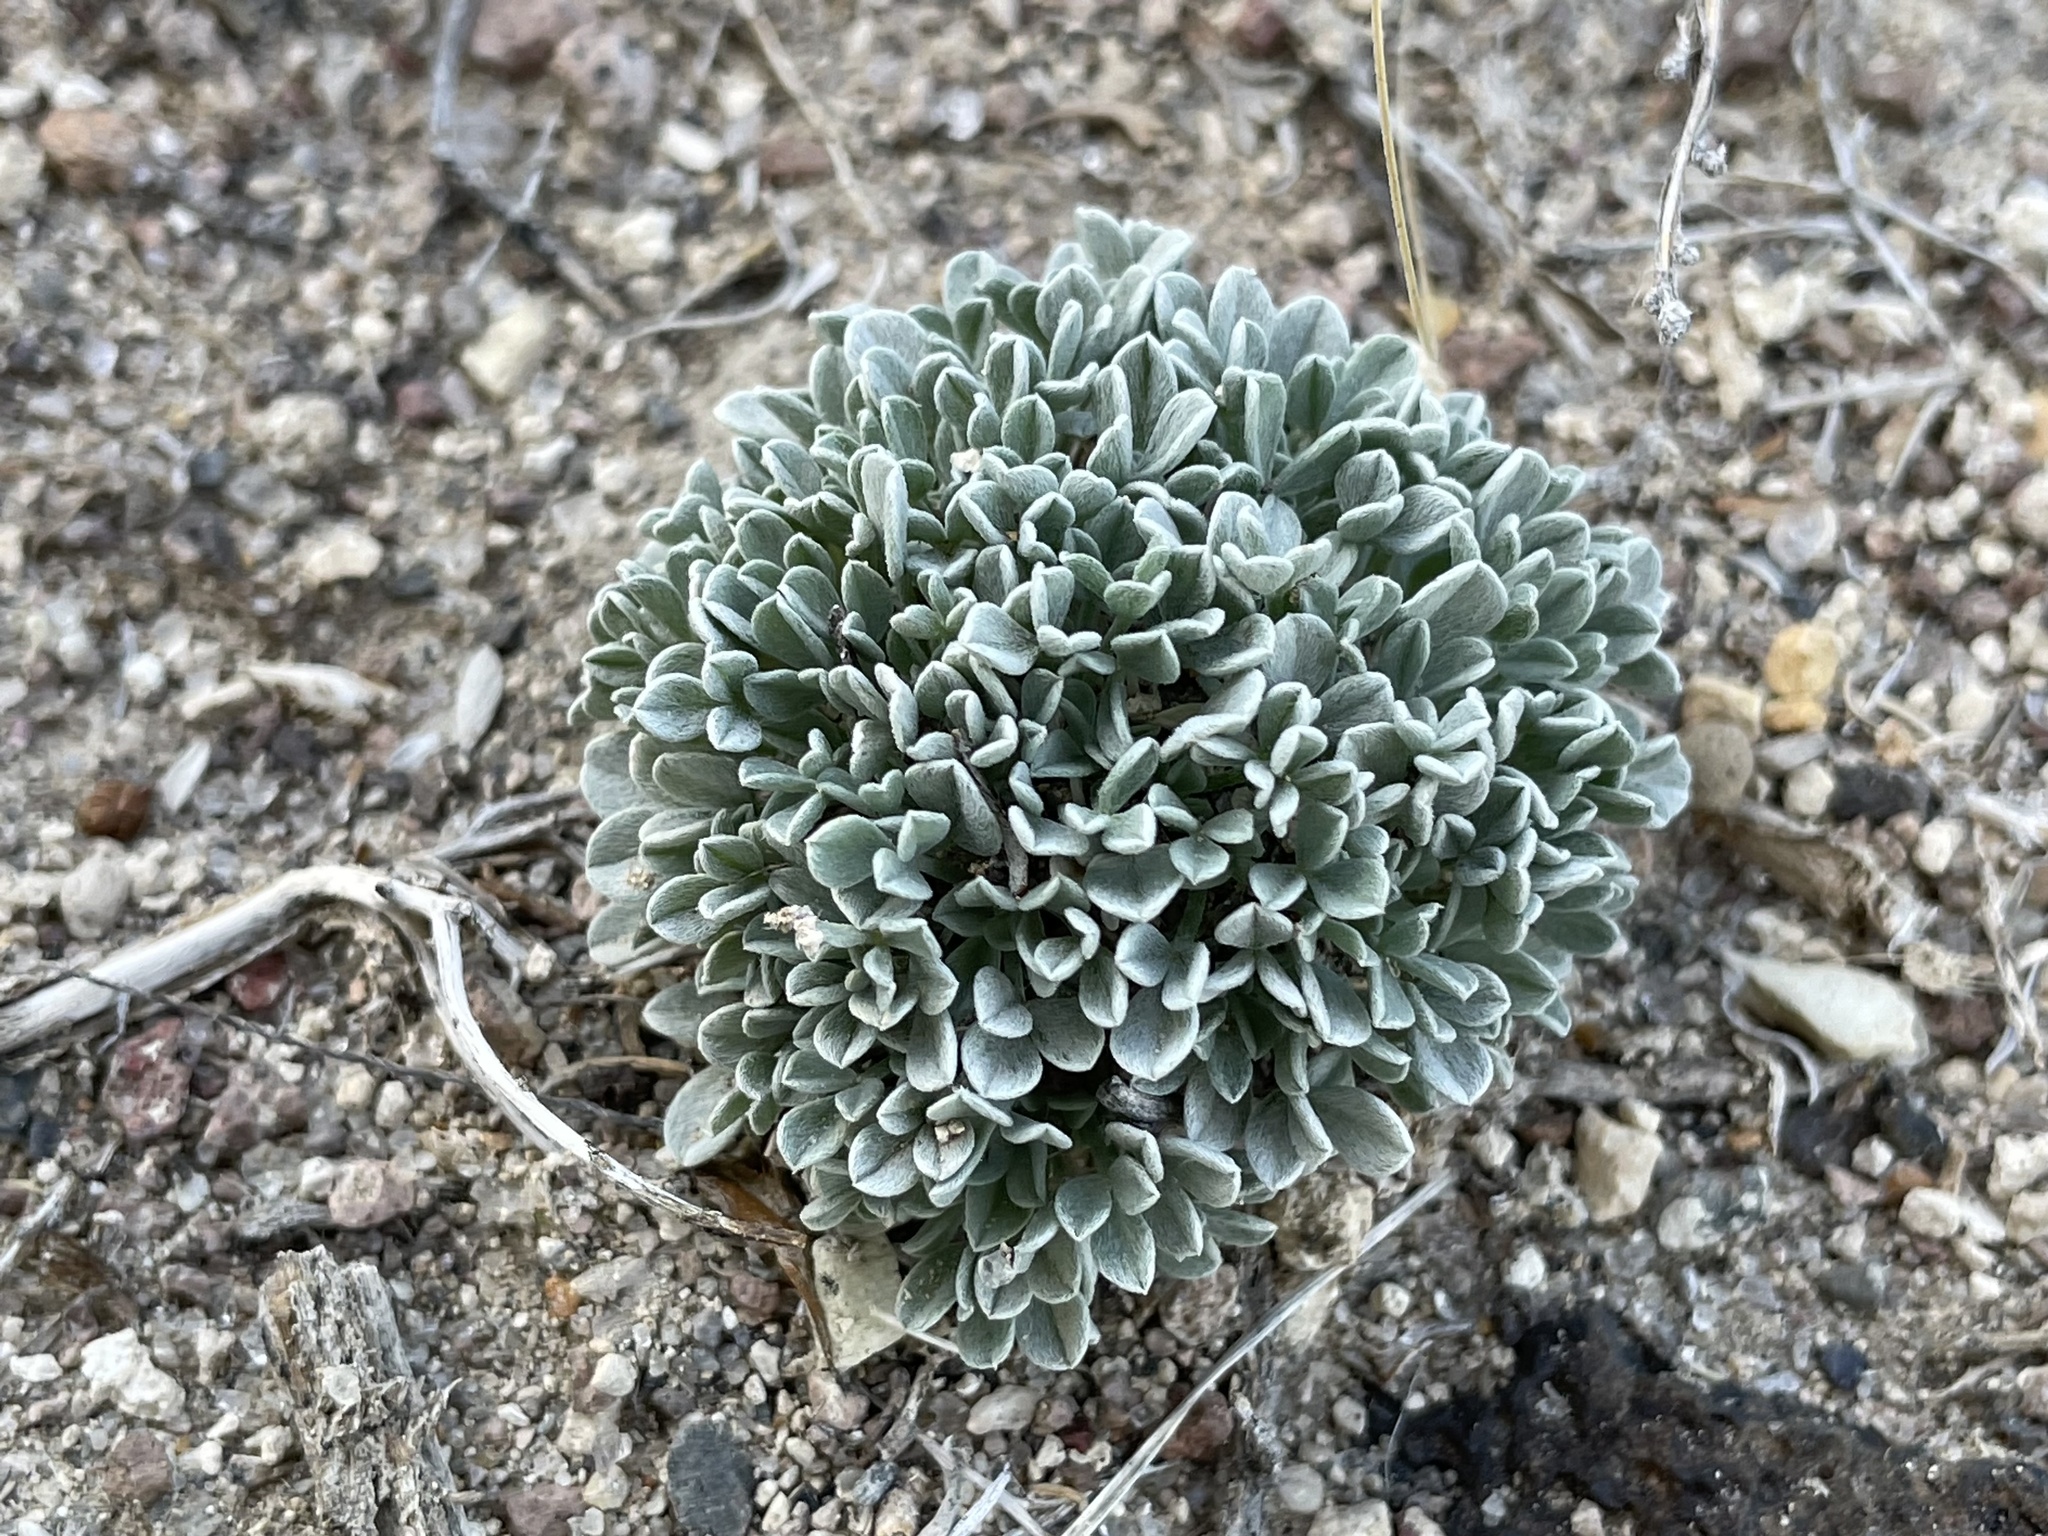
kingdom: Plantae
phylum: Tracheophyta
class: Magnoliopsida
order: Fabales
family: Fabaceae
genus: Astragalus
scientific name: Astragalus calycosus
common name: King's milkvetch
